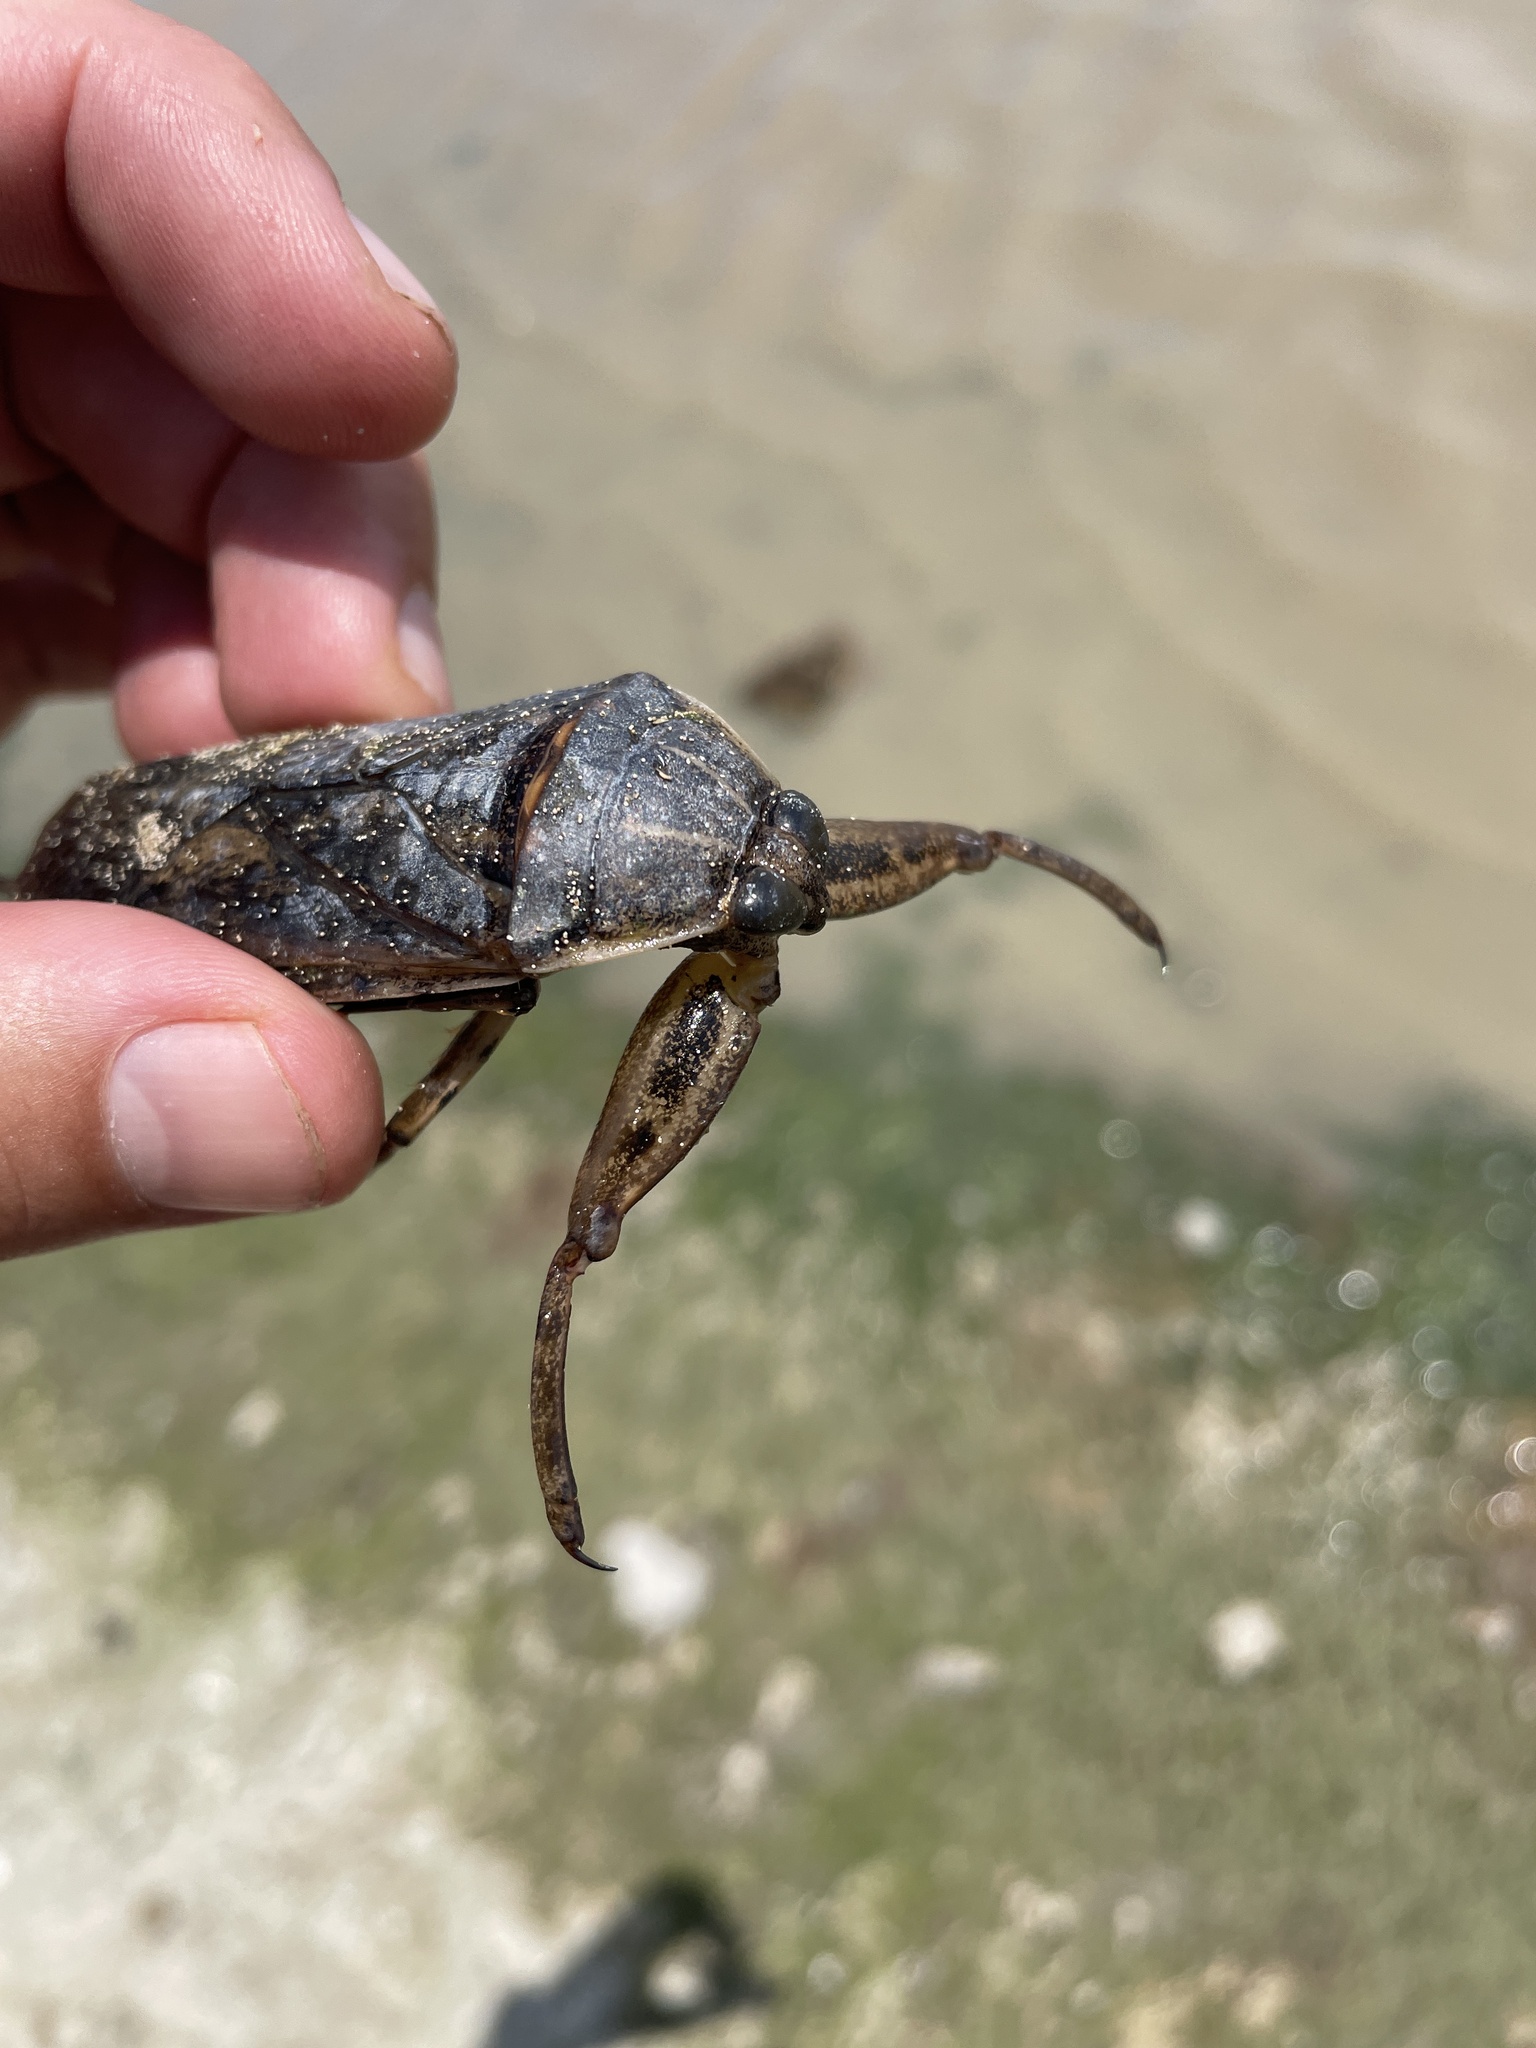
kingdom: Animalia
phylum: Arthropoda
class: Insecta
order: Hemiptera
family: Belostomatidae
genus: Lethocerus
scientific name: Lethocerus cordofanus
